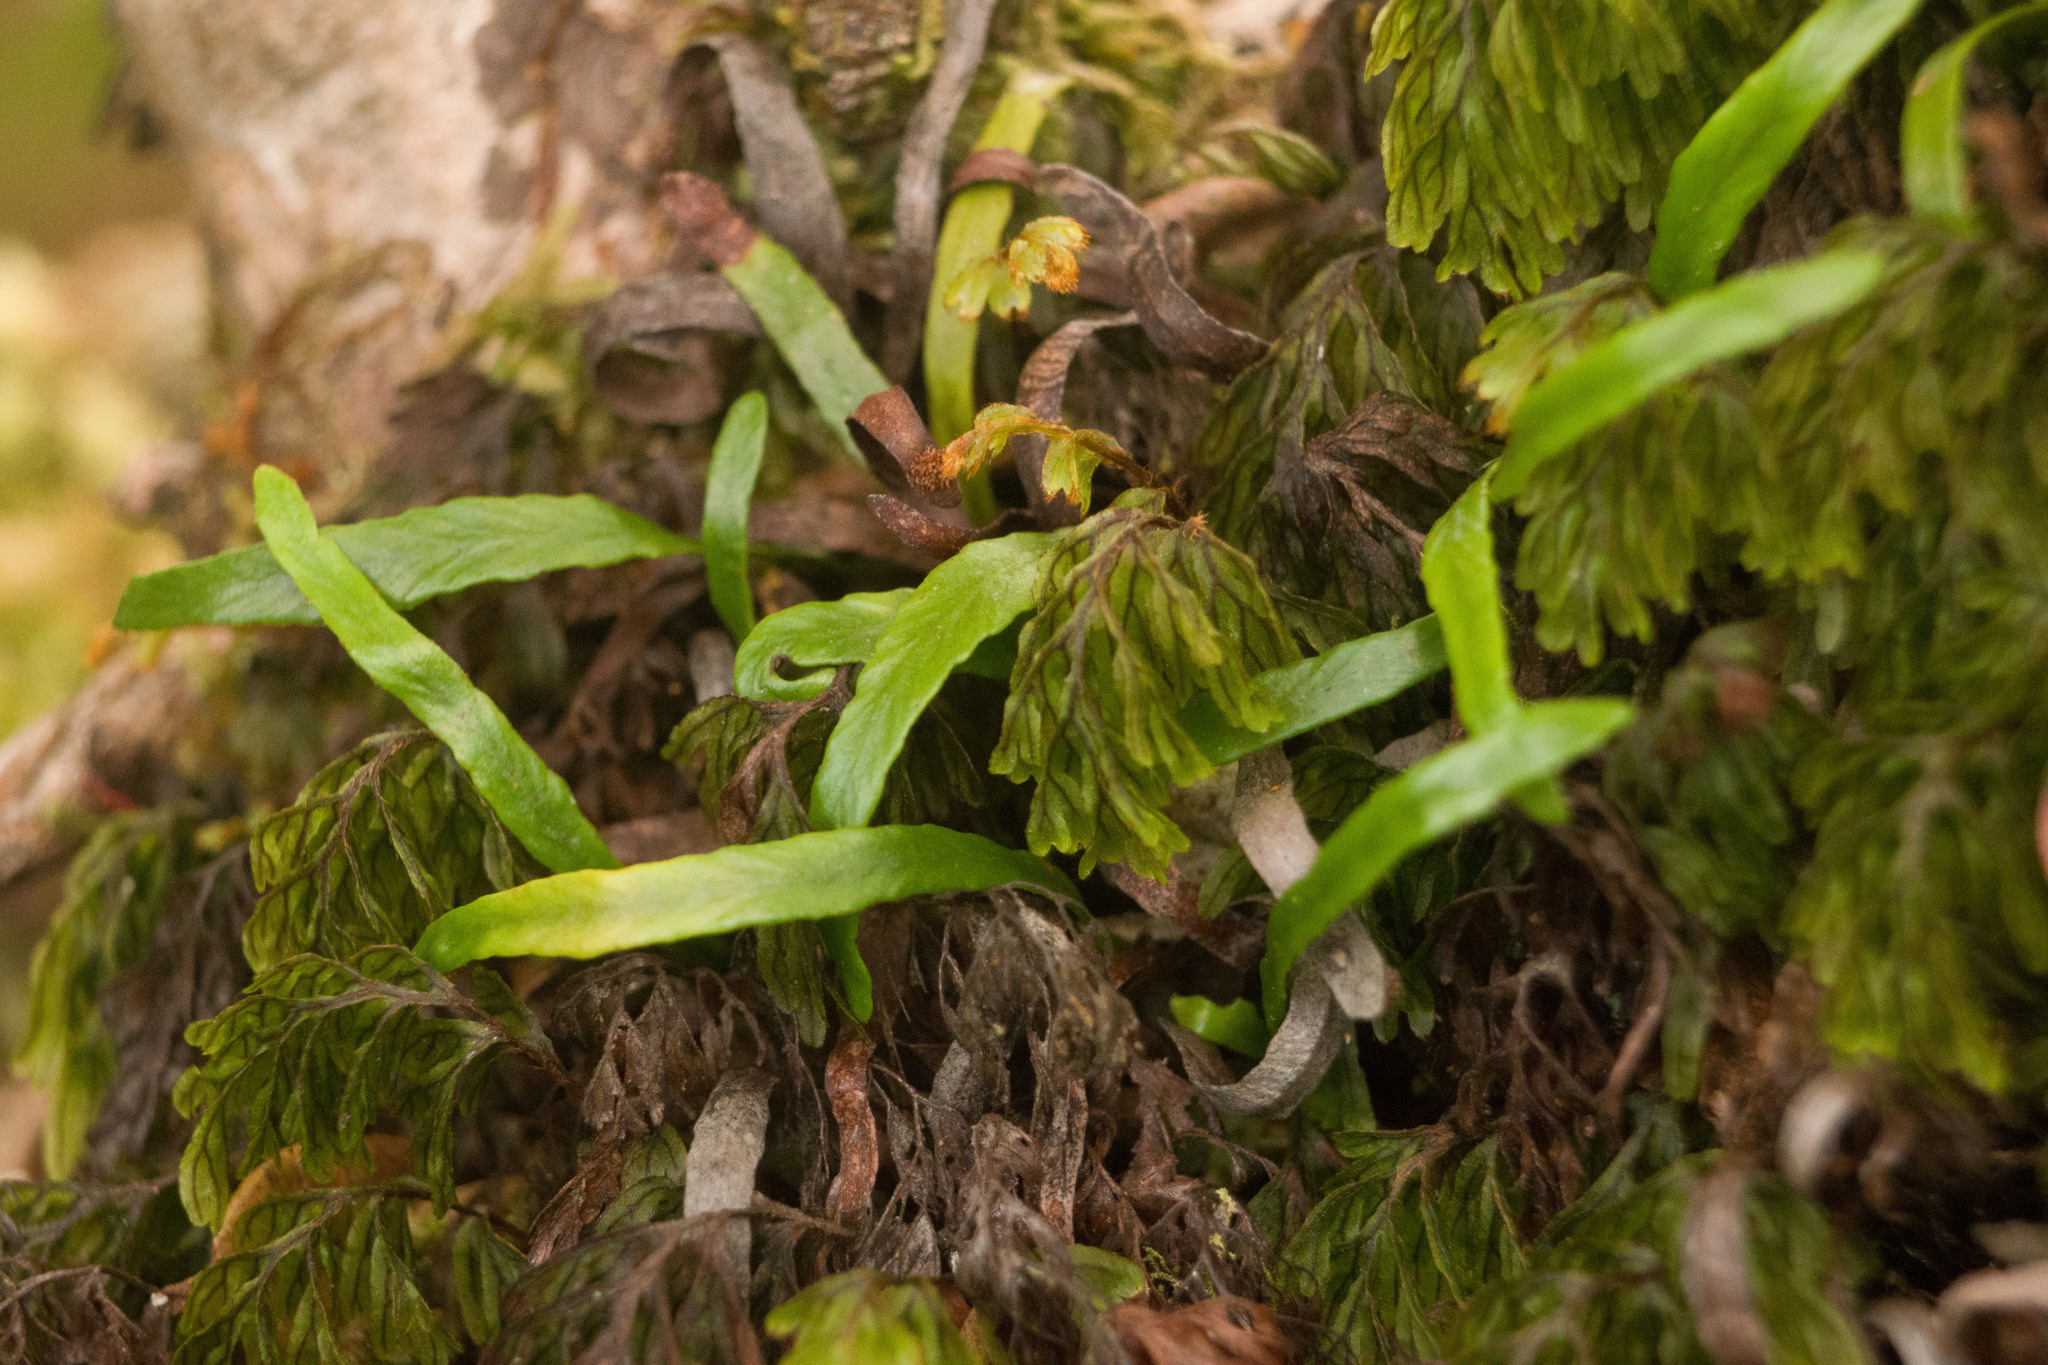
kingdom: Plantae
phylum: Tracheophyta
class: Polypodiopsida
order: Polypodiales
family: Polypodiaceae
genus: Adenophorus
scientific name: Adenophorus tenellus
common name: Kolokolo
